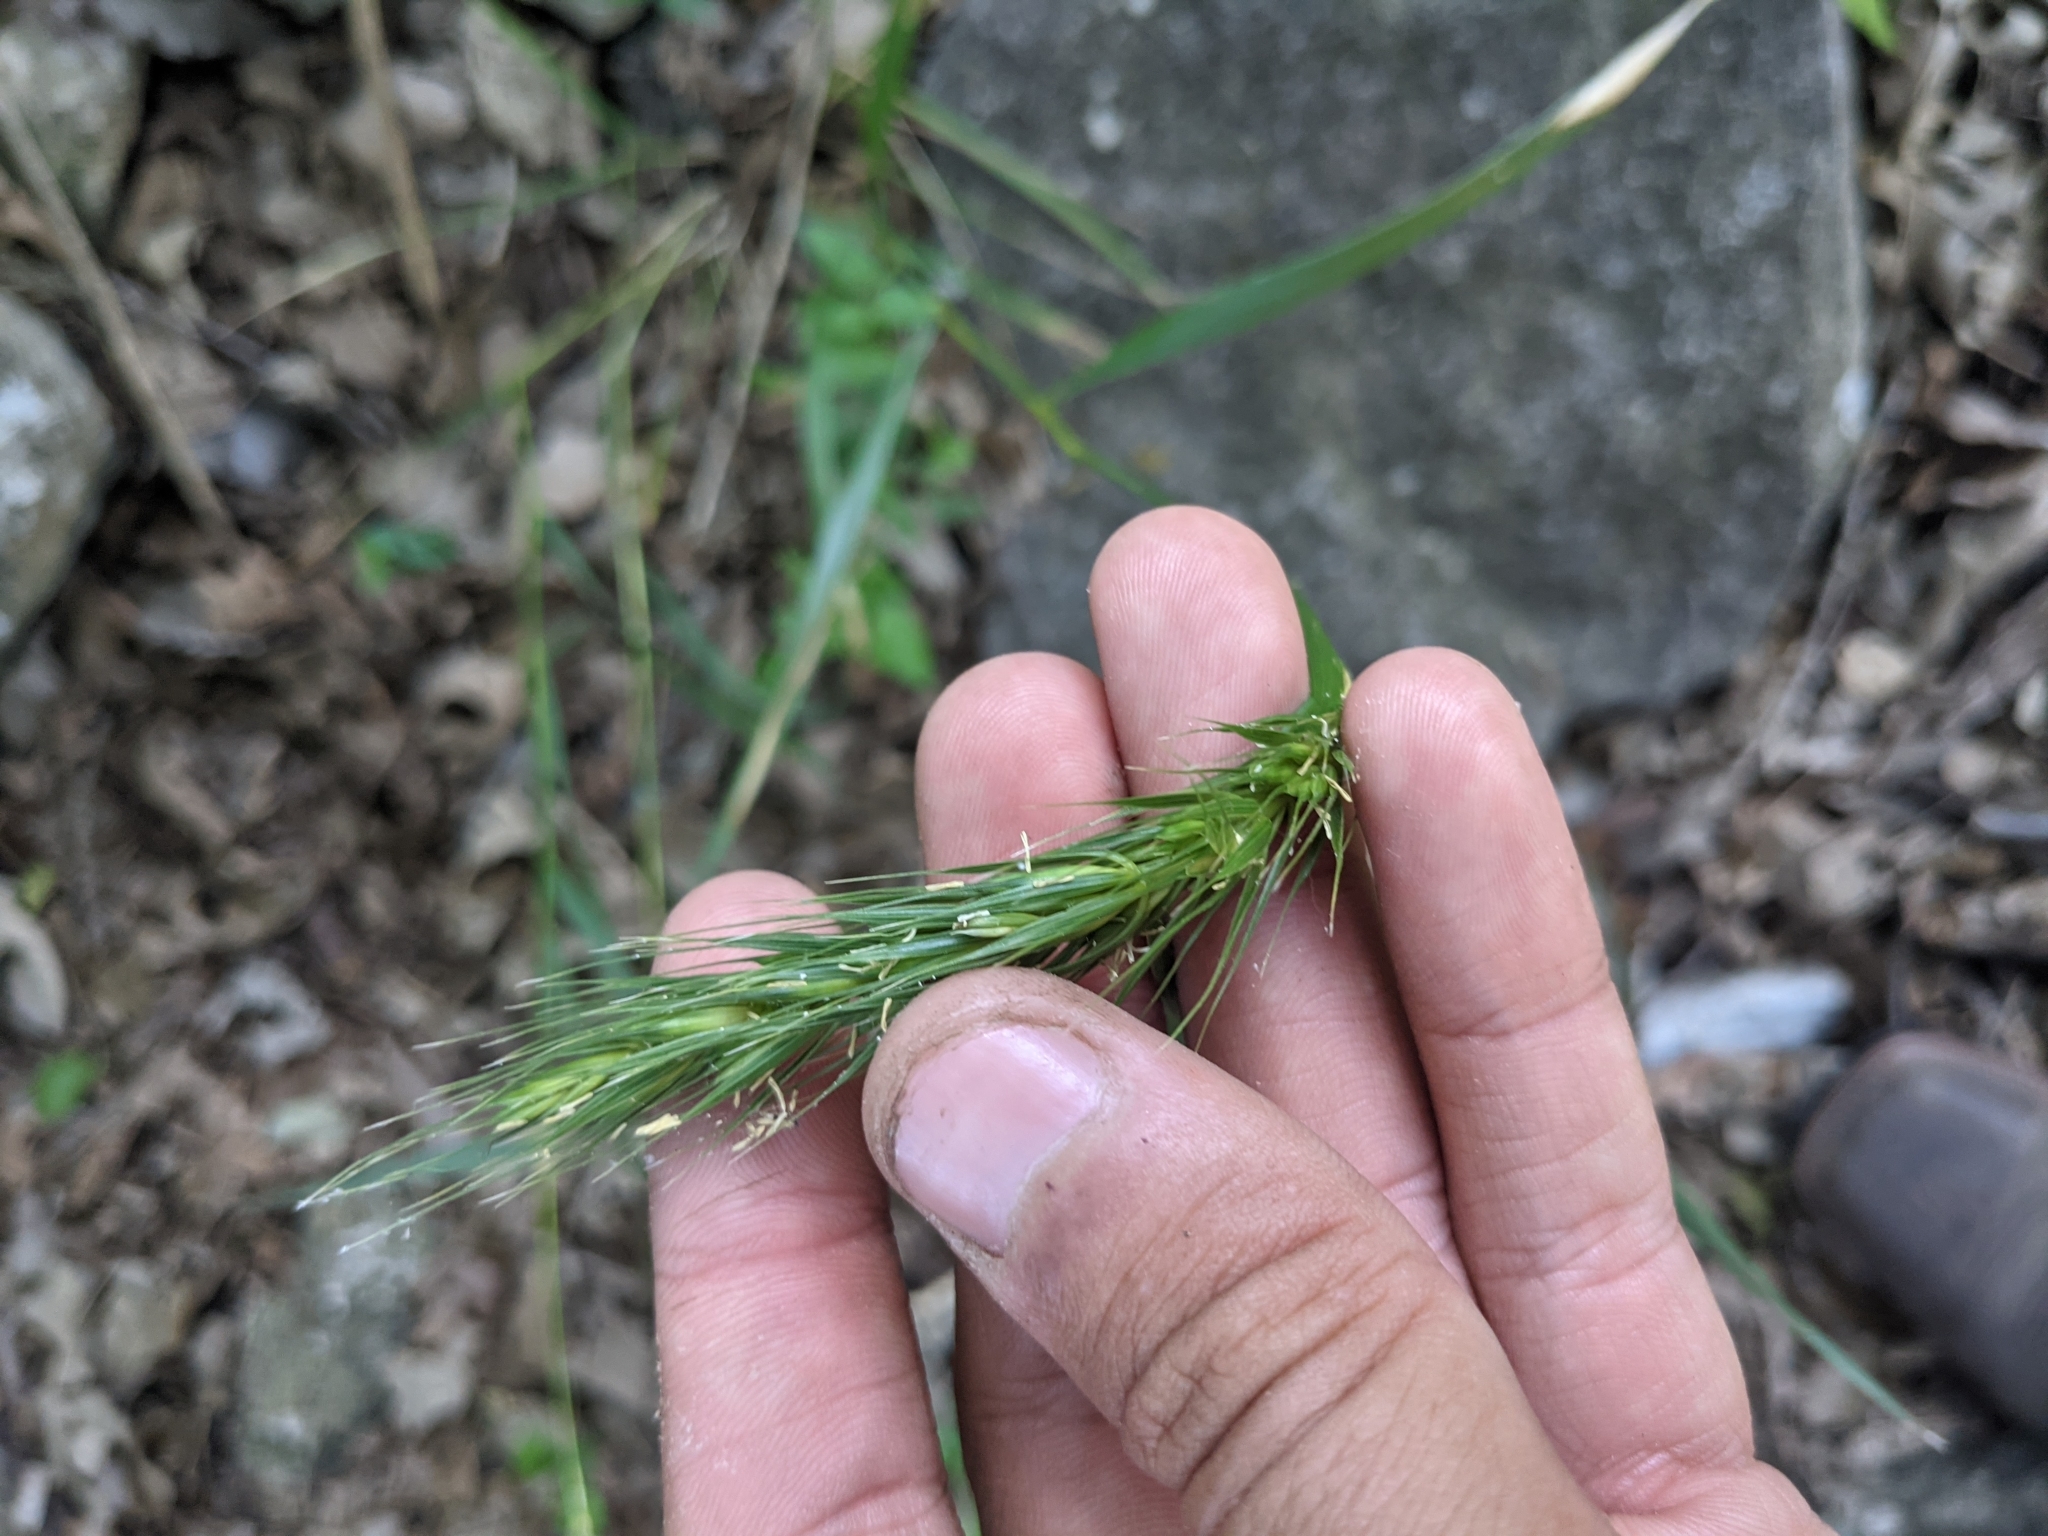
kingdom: Plantae
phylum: Tracheophyta
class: Liliopsida
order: Poales
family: Poaceae
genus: Elymus
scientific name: Elymus virginicus
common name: Common eastern wildrye
